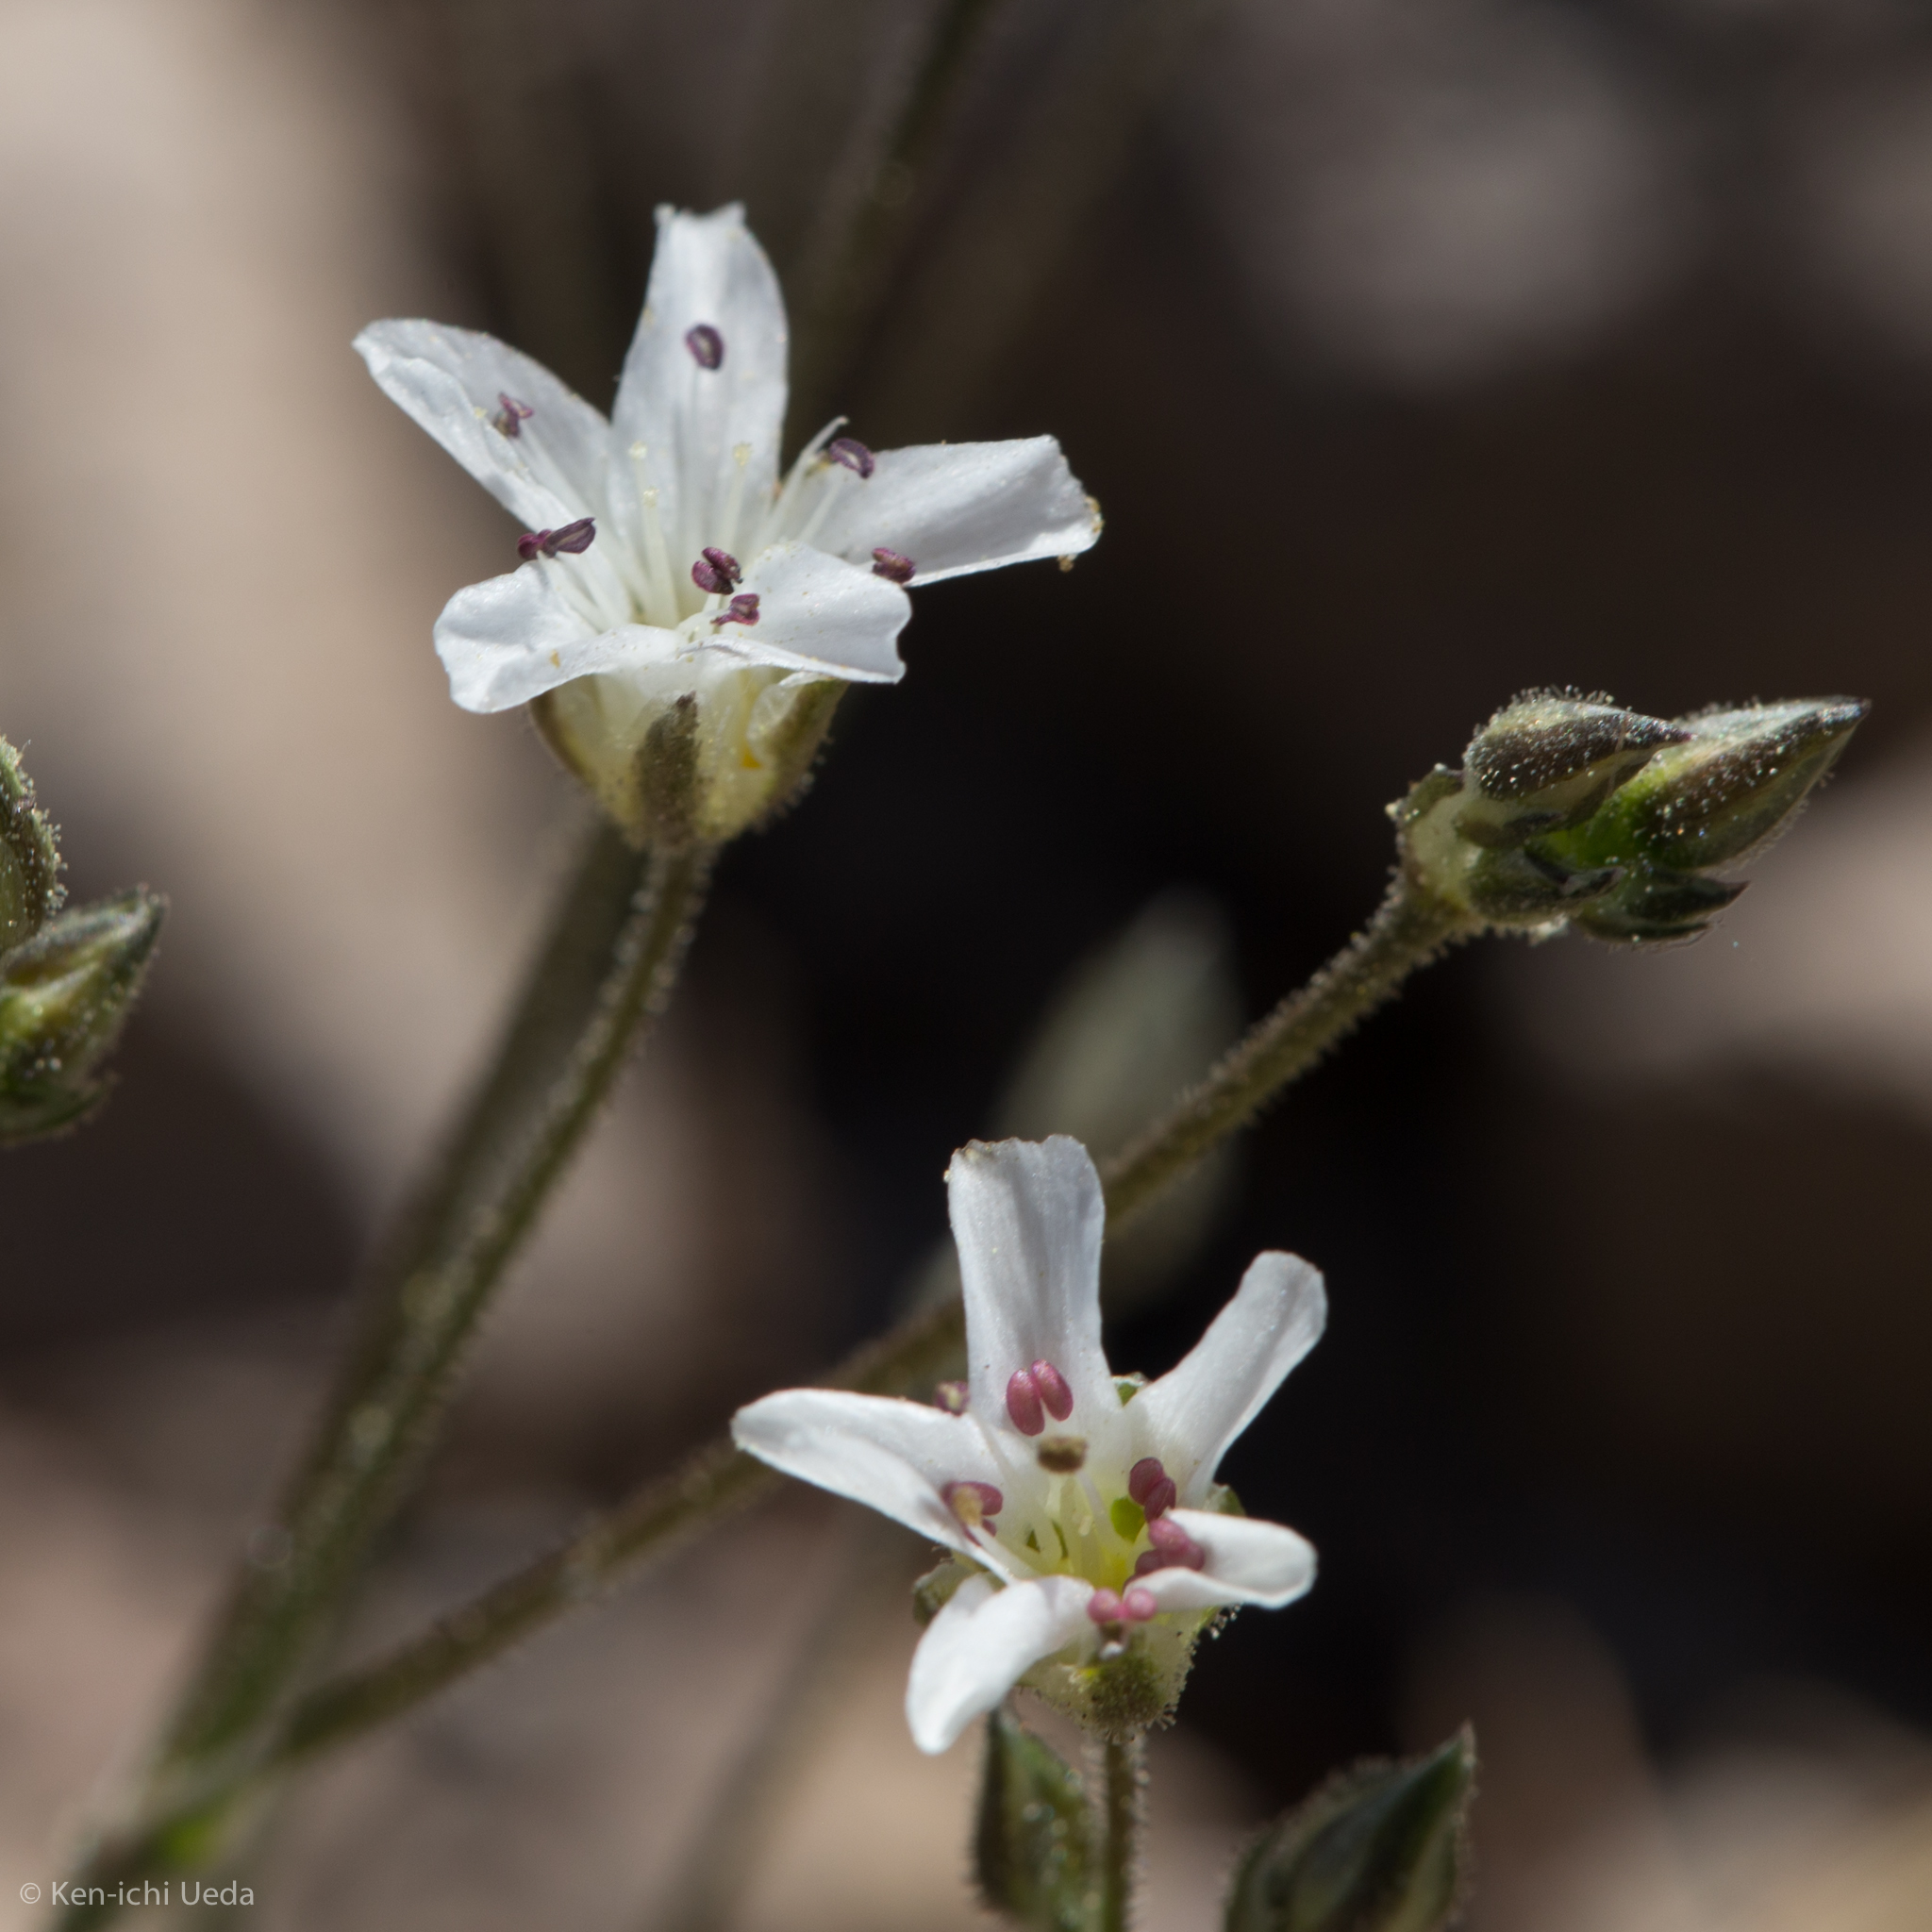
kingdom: Plantae
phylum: Tracheophyta
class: Magnoliopsida
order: Caryophyllales
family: Caryophyllaceae
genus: Eremogone
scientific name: Eremogone kingii
